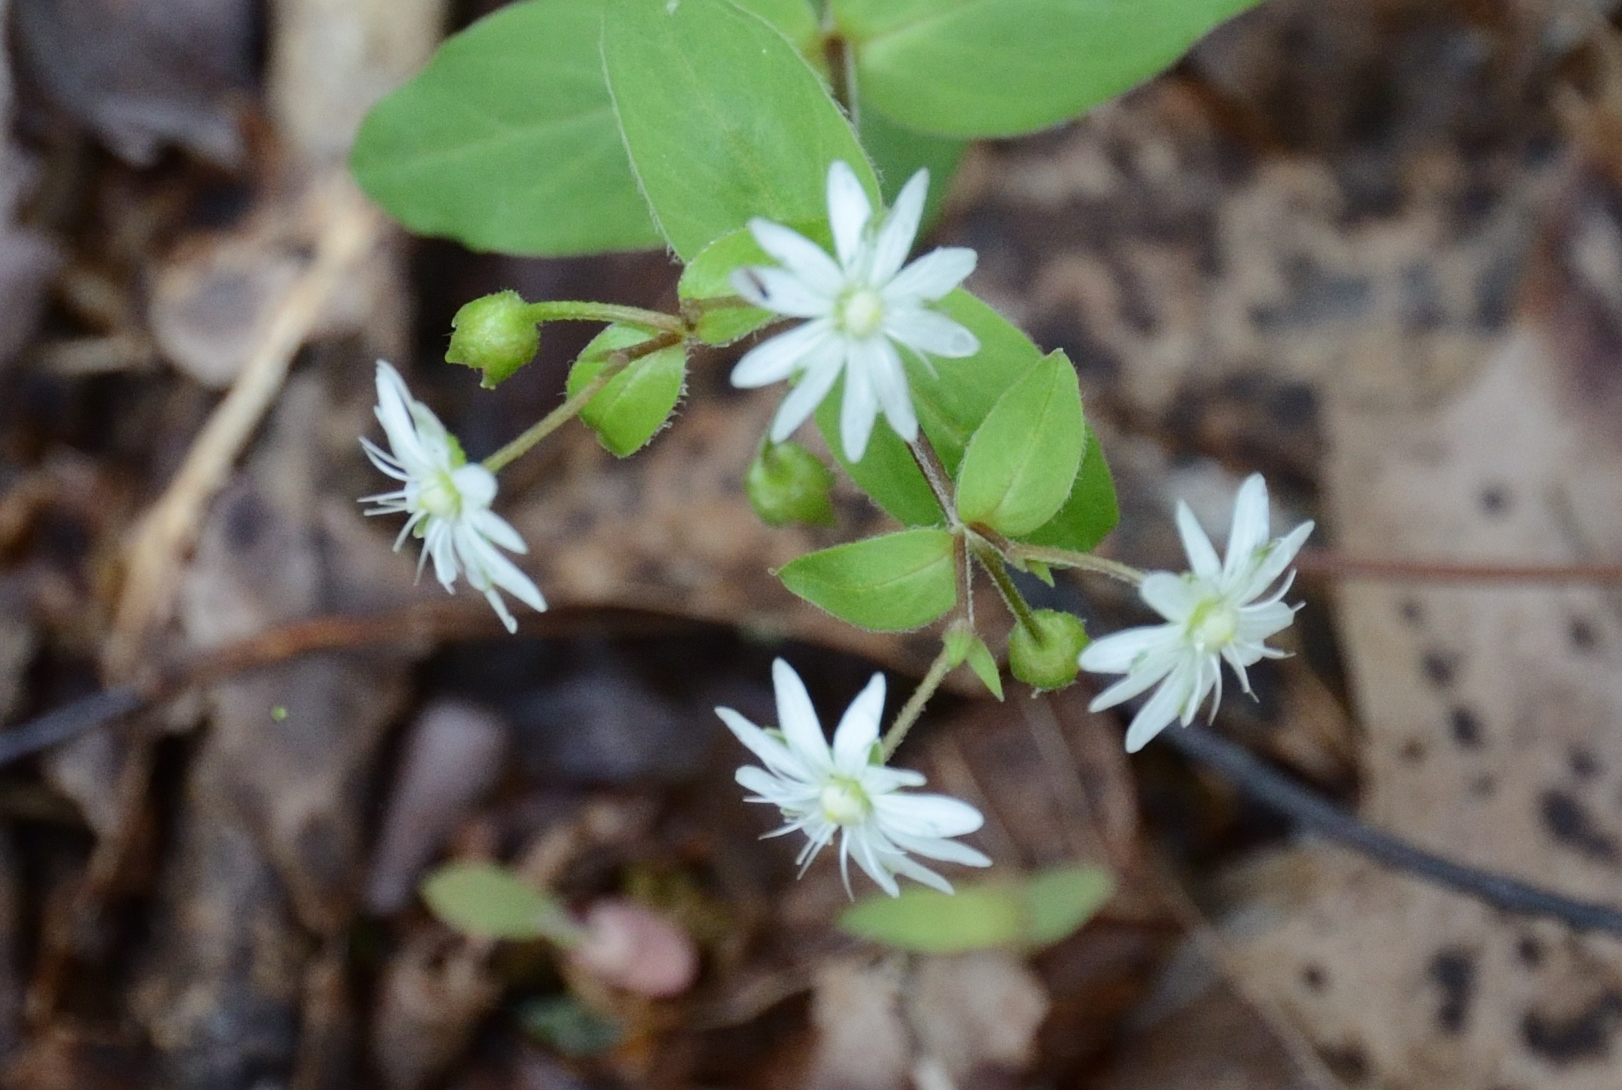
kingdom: Plantae
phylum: Tracheophyta
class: Magnoliopsida
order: Caryophyllales
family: Caryophyllaceae
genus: Stellaria
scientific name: Stellaria pubera
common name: Star chickweed
